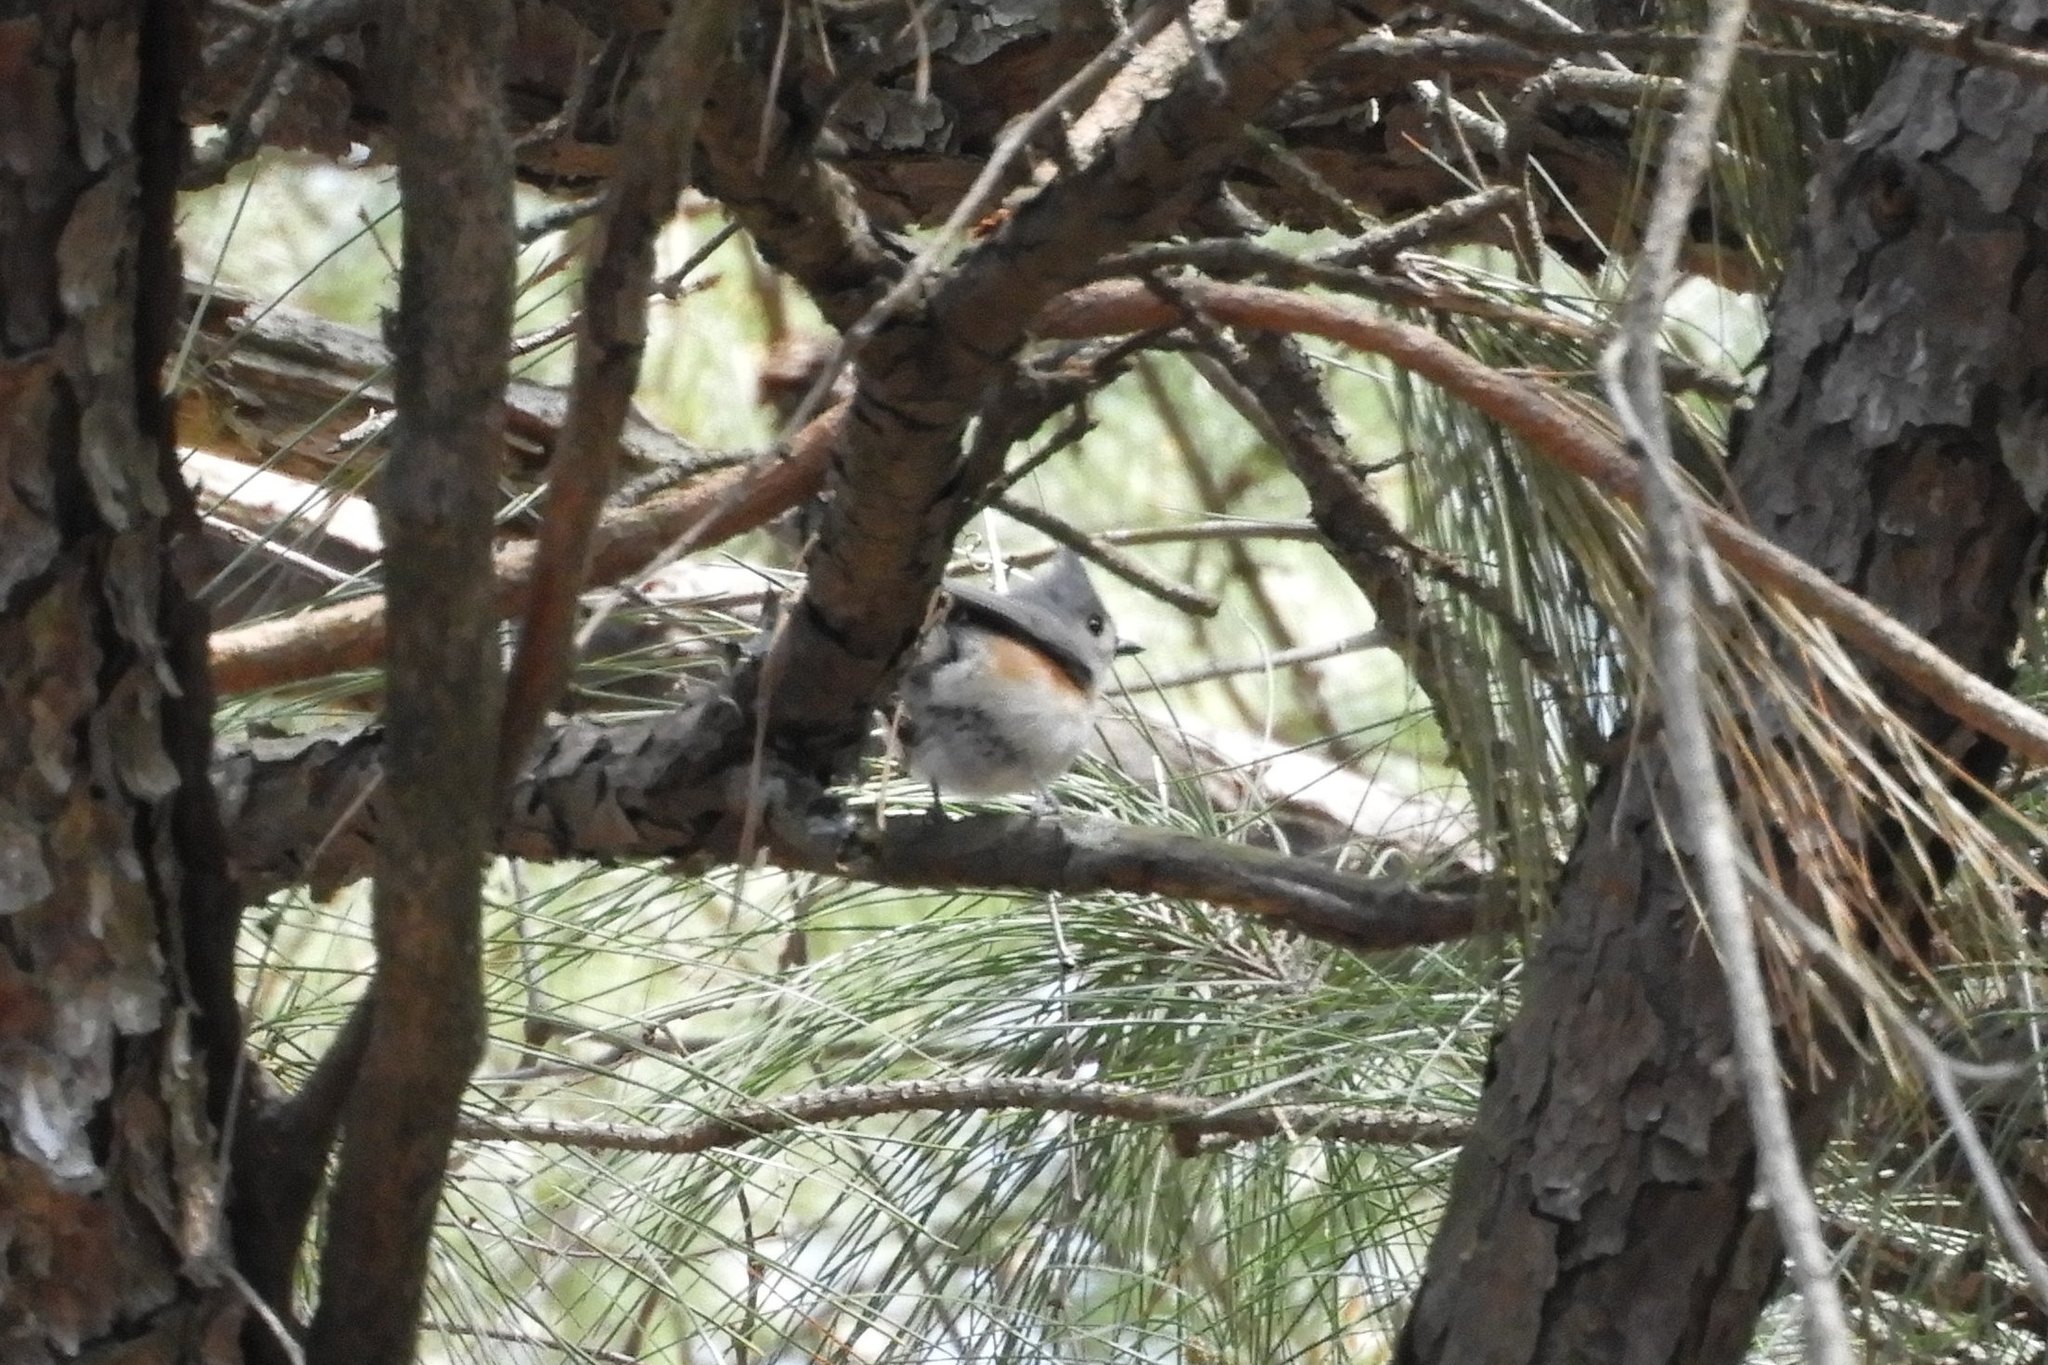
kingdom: Animalia
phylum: Chordata
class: Aves
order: Passeriformes
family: Paridae
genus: Baeolophus
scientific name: Baeolophus bicolor
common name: Tufted titmouse
